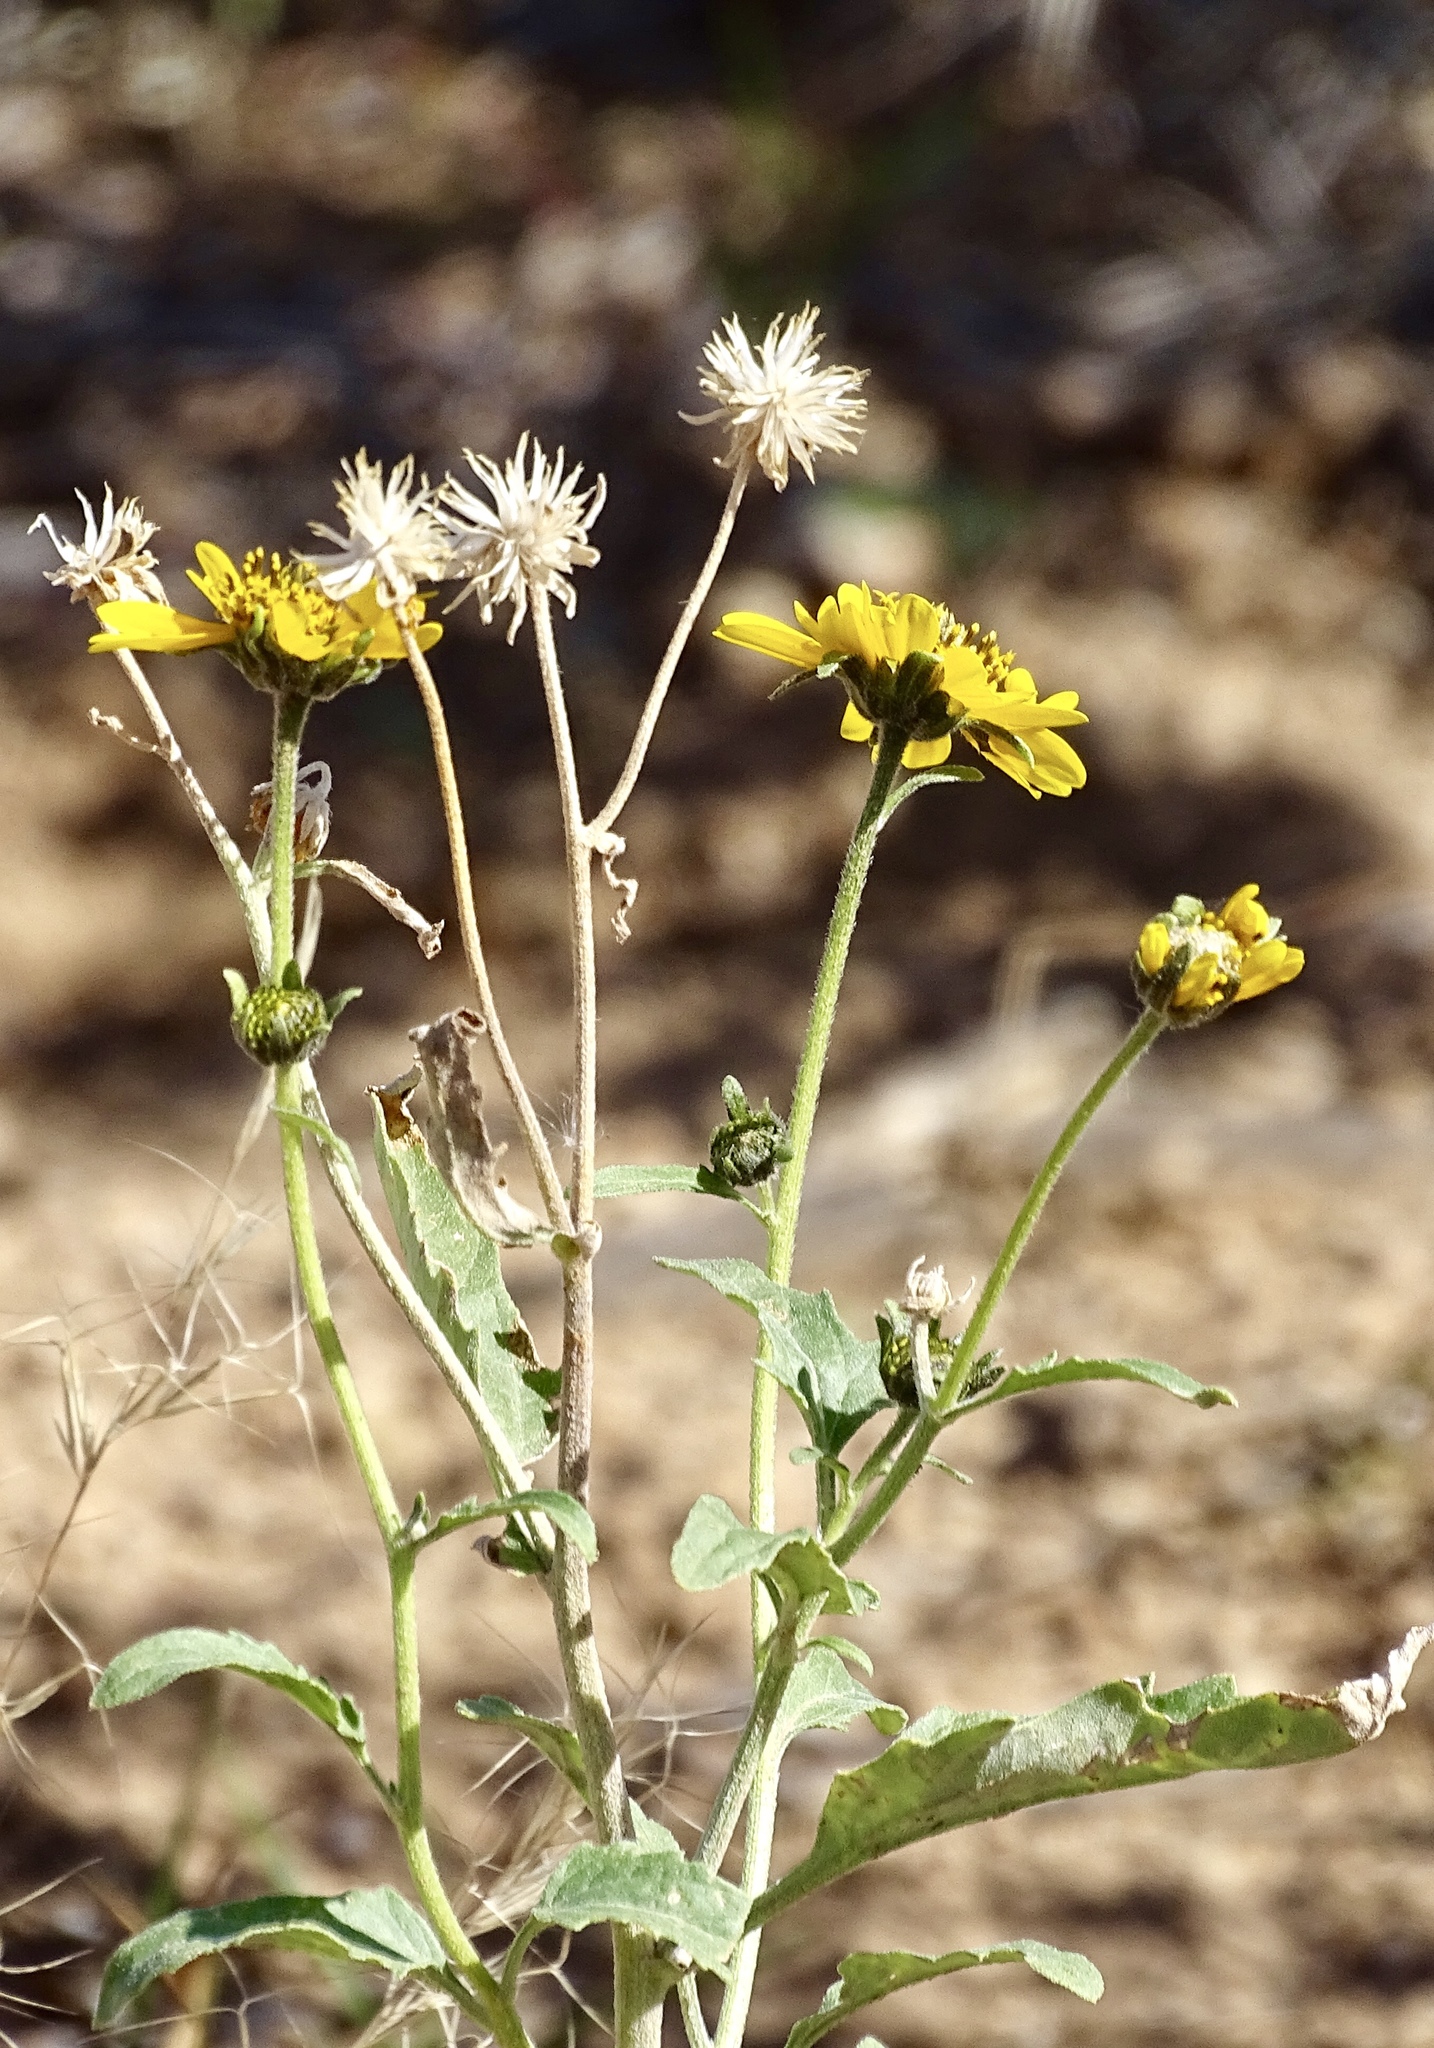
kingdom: Plantae
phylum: Tracheophyta
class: Magnoliopsida
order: Asterales
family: Asteraceae
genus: Verbesina
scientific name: Verbesina encelioides
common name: Golden crownbeard
